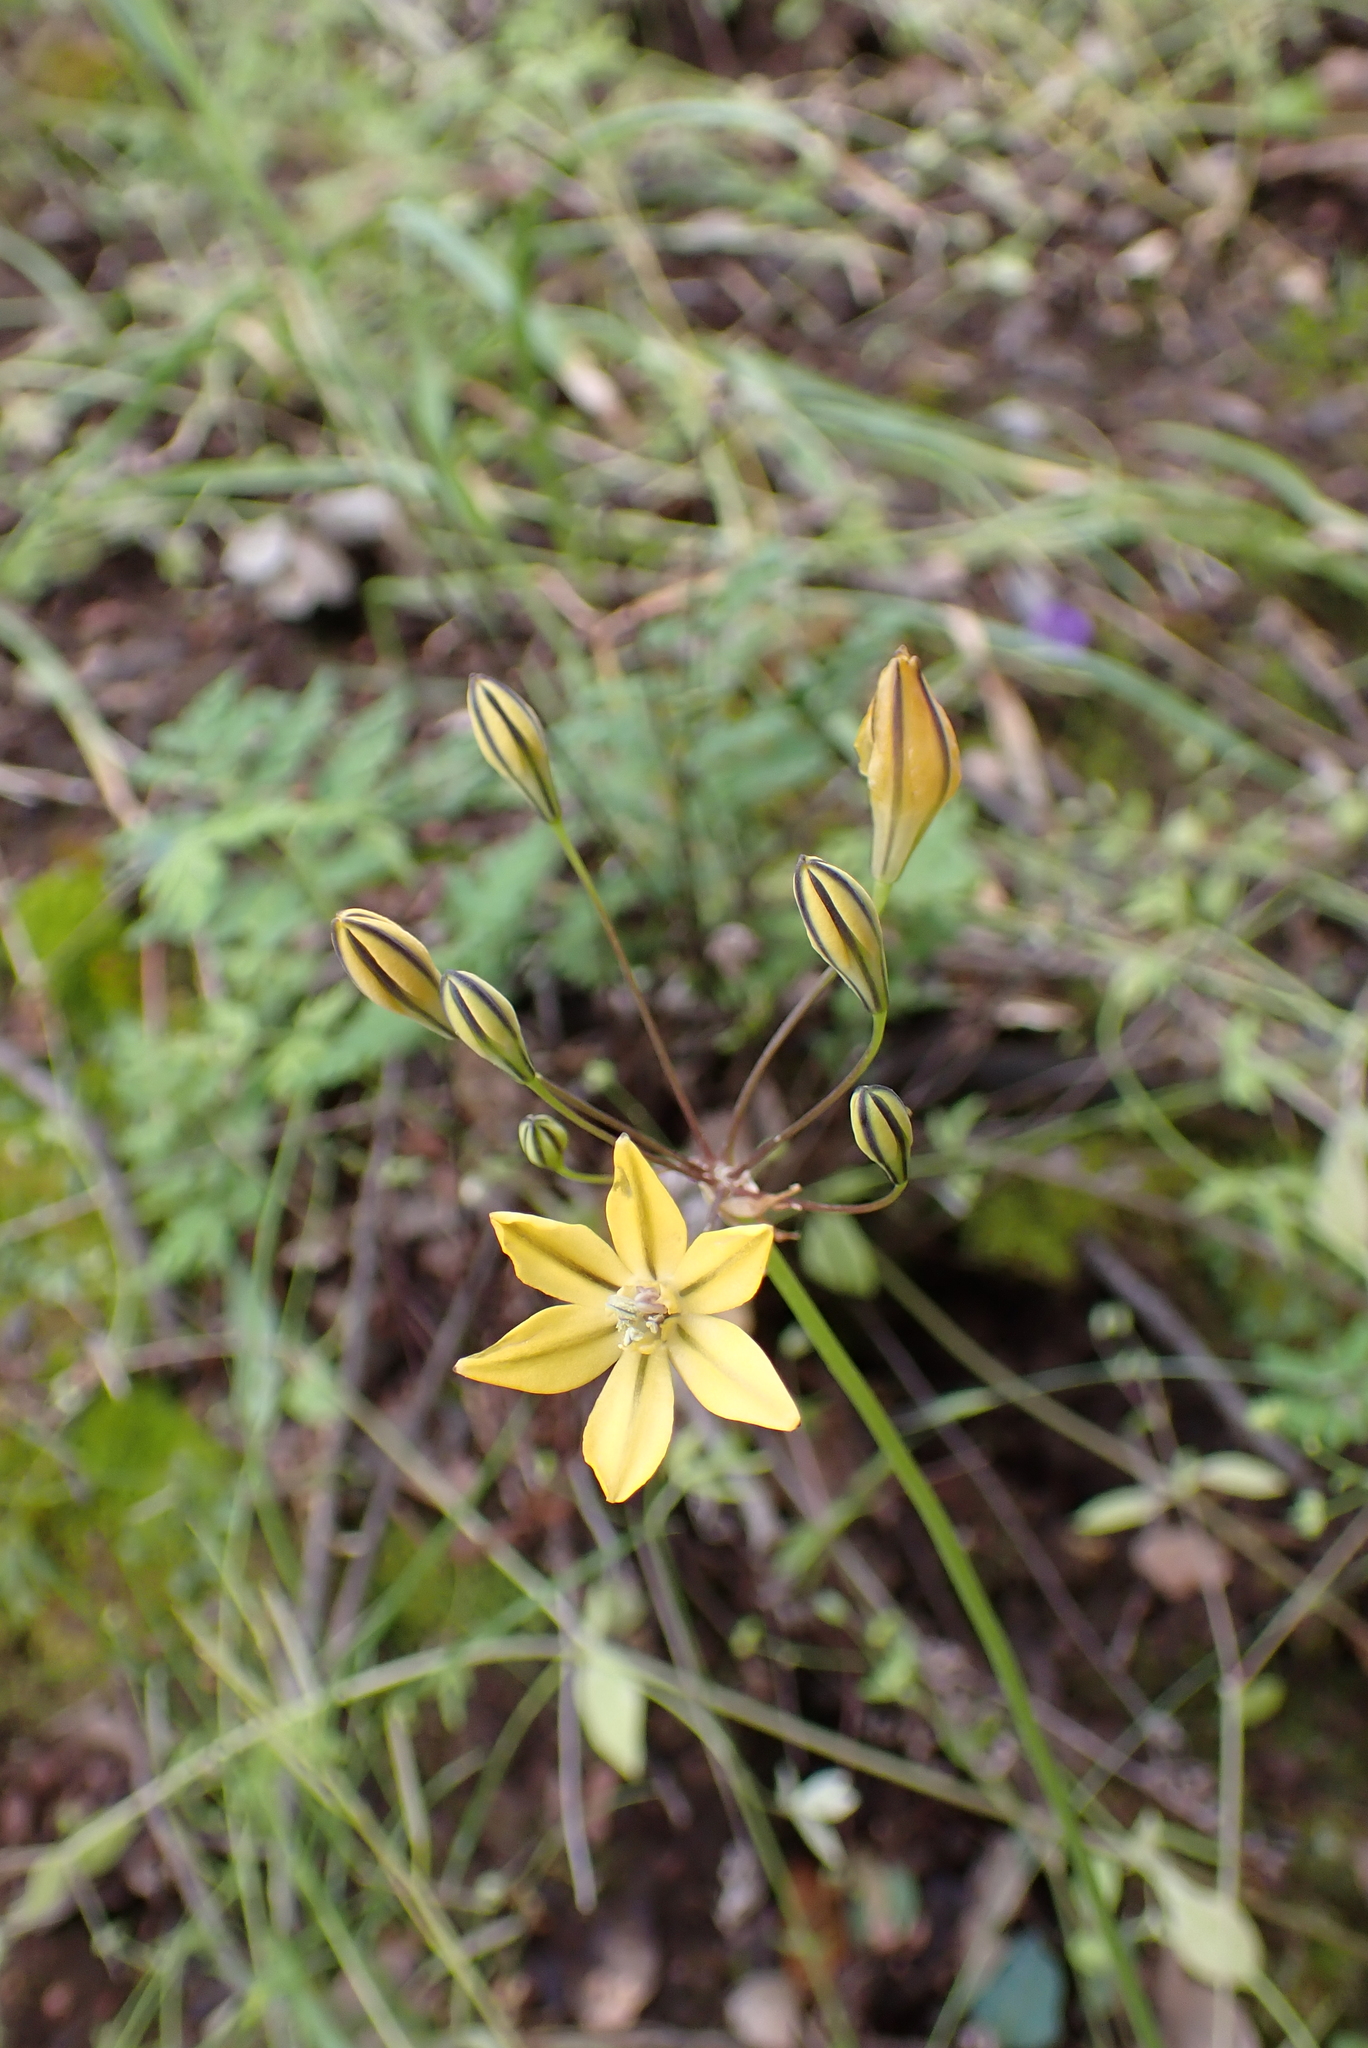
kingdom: Plantae
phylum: Tracheophyta
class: Liliopsida
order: Asparagales
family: Asparagaceae
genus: Triteleia
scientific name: Triteleia lugens
